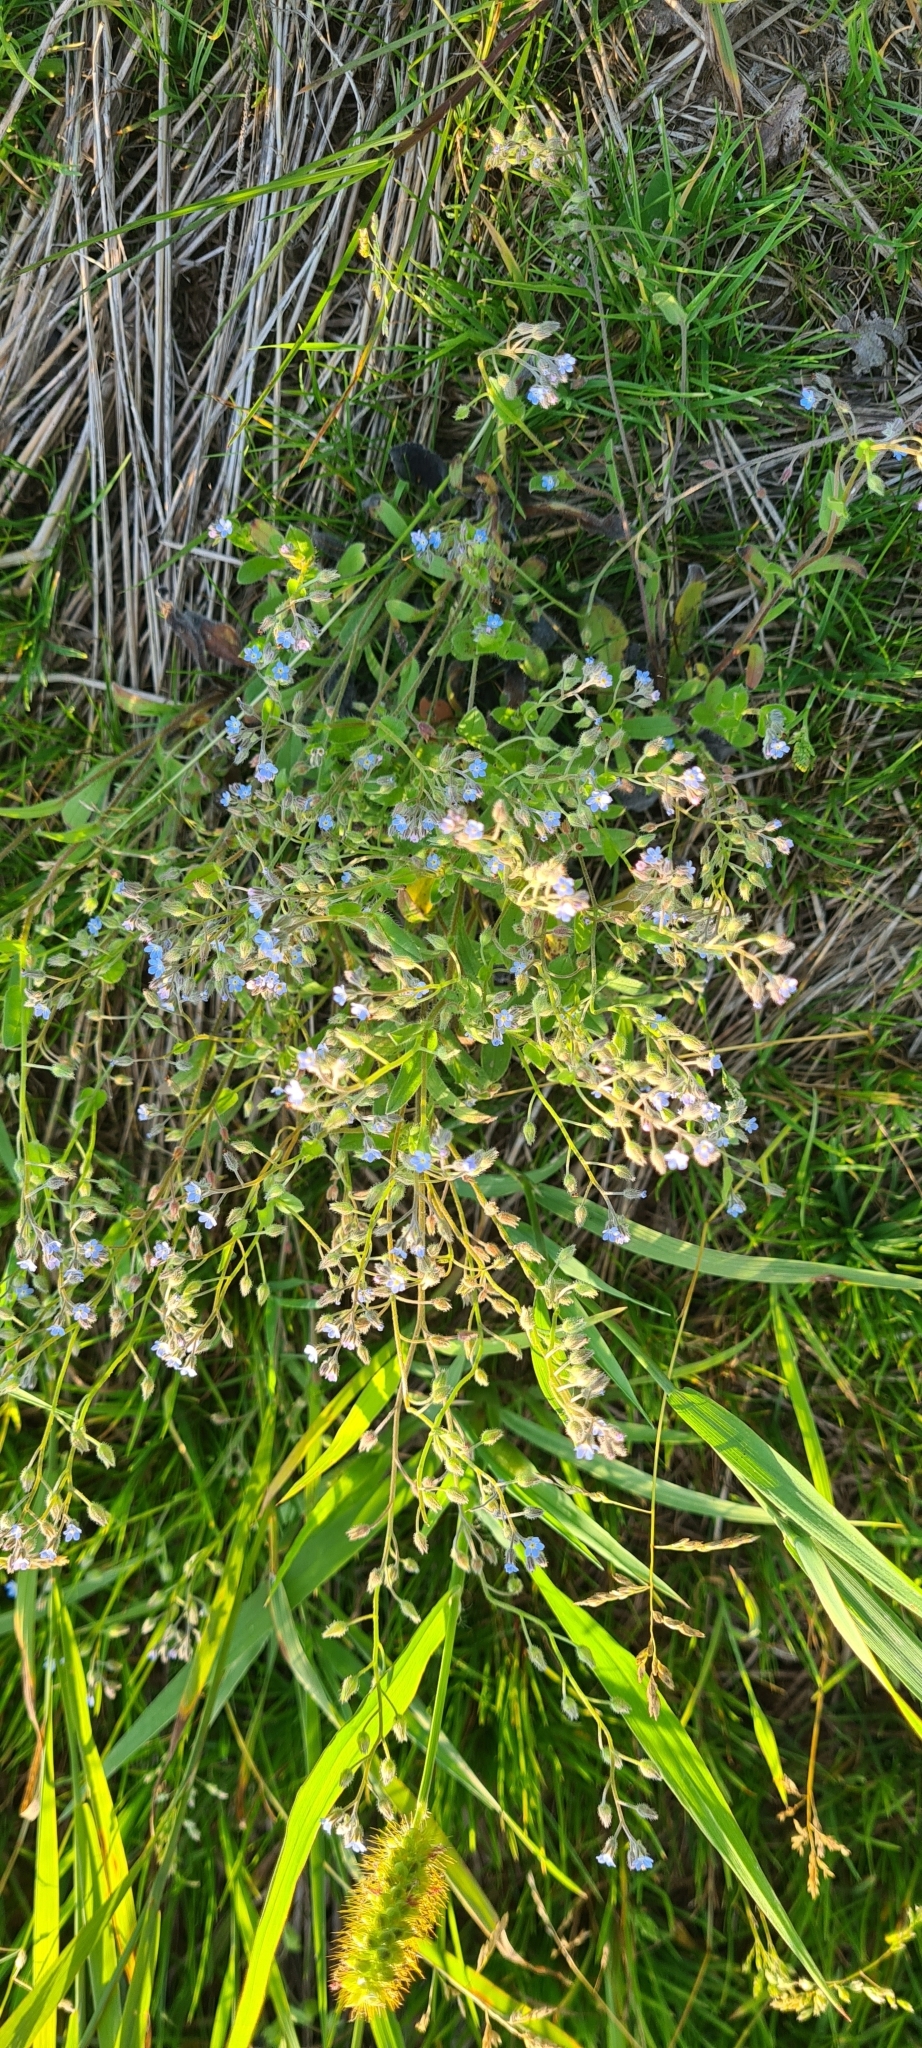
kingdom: Plantae
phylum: Tracheophyta
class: Magnoliopsida
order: Boraginales
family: Boraginaceae
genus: Myosotis
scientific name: Myosotis arvensis
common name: Field forget-me-not
